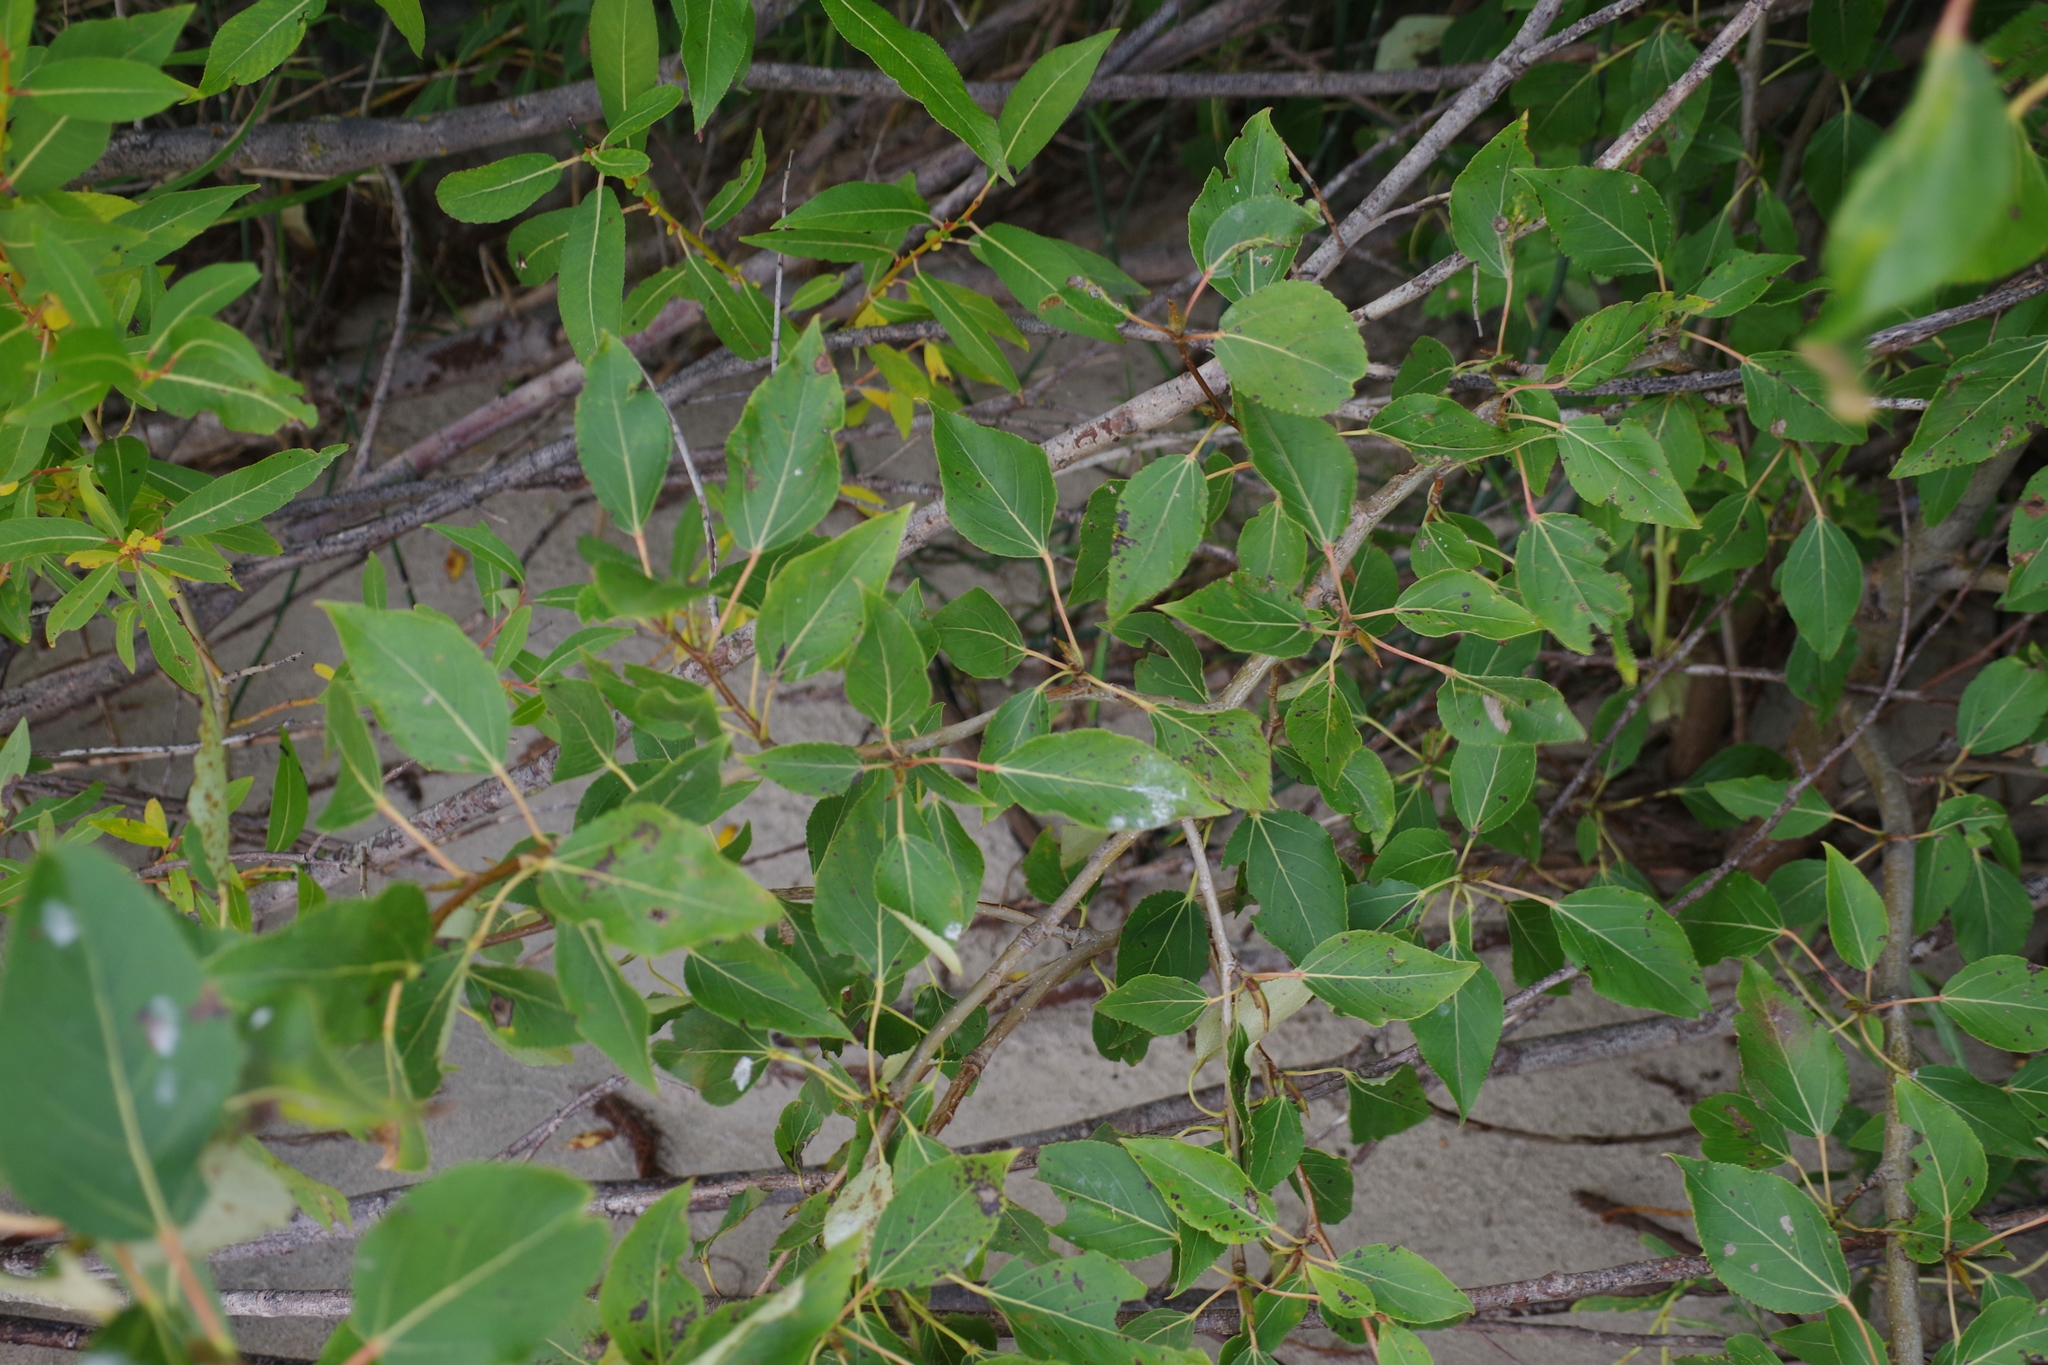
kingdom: Plantae
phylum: Tracheophyta
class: Magnoliopsida
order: Malpighiales
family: Salicaceae
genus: Populus
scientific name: Populus balsamifera
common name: Balsam poplar
